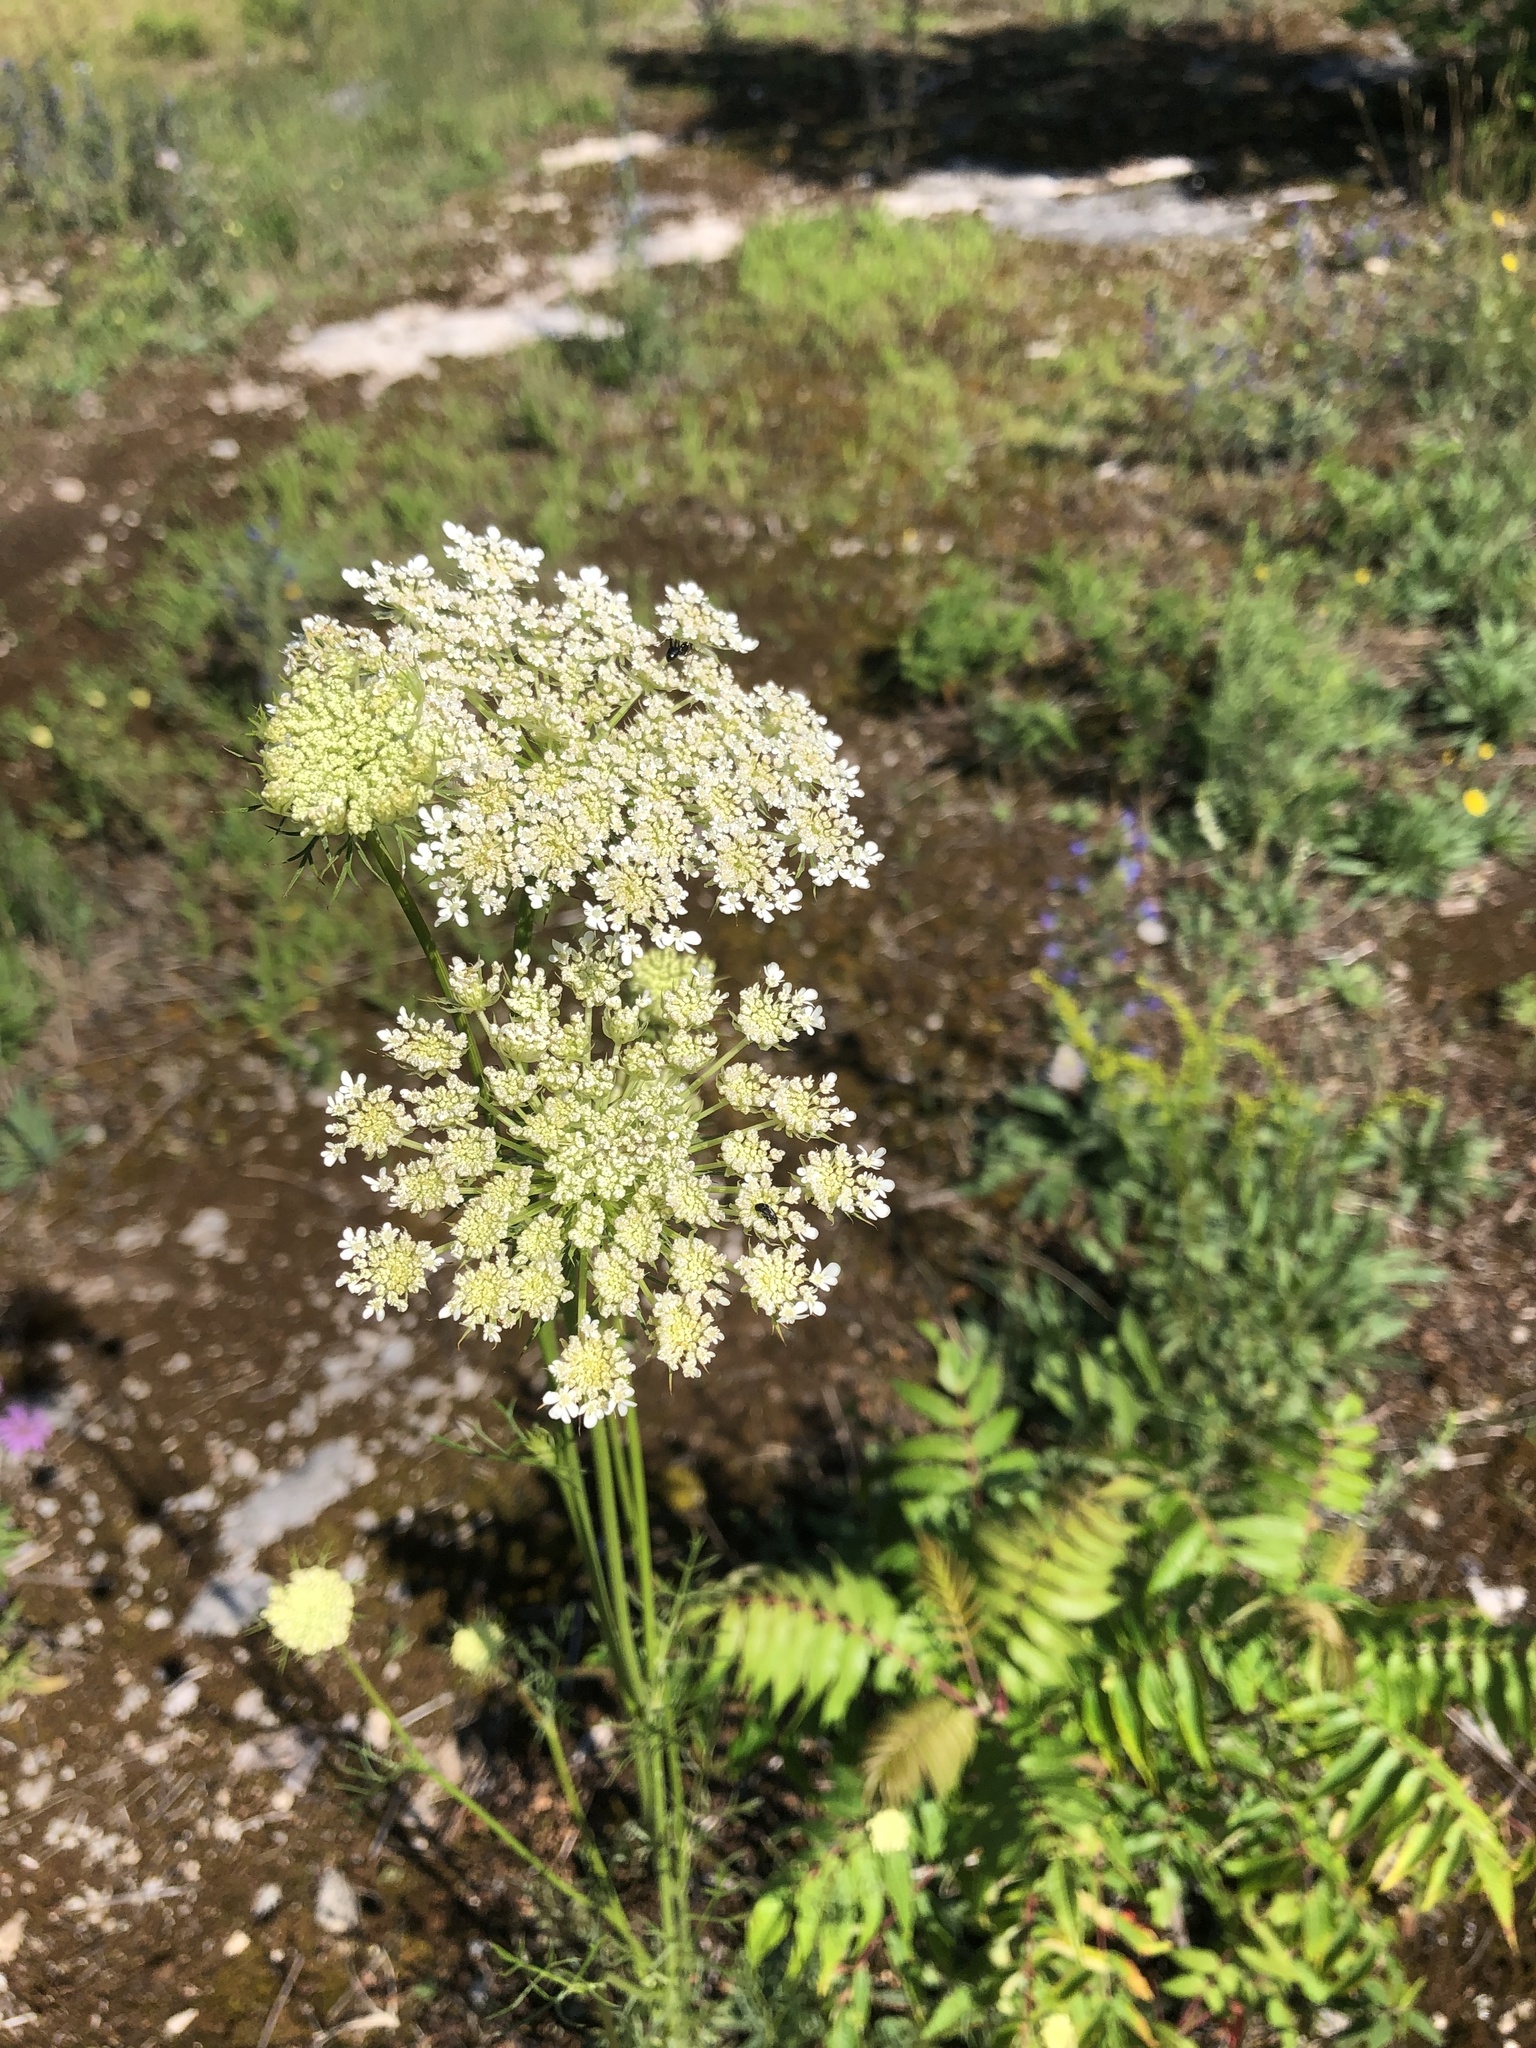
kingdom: Plantae
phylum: Tracheophyta
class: Magnoliopsida
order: Apiales
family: Apiaceae
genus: Daucus
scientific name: Daucus carota
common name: Wild carrot
